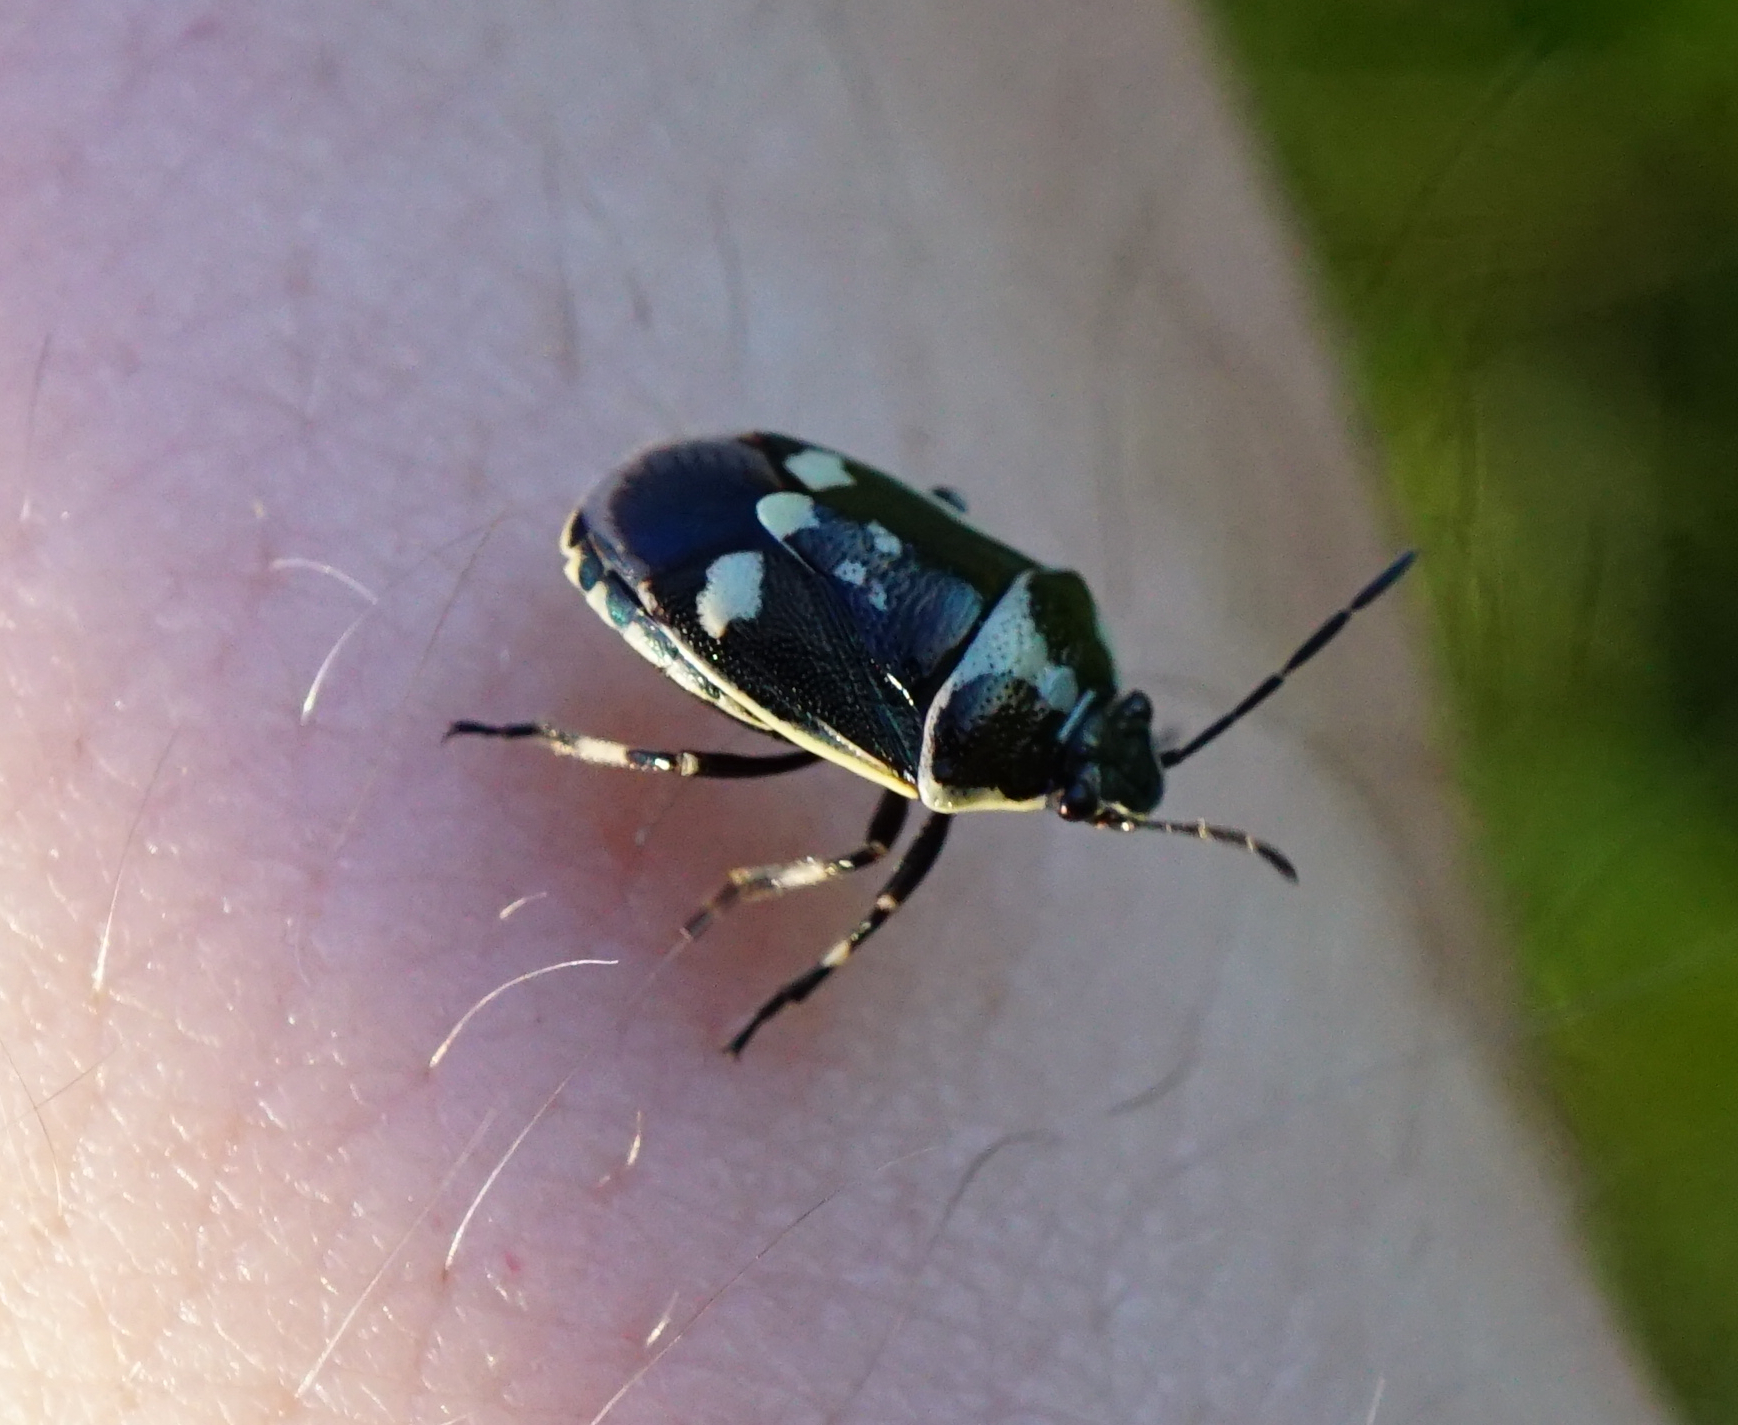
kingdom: Animalia
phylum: Arthropoda
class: Insecta
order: Hemiptera
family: Pentatomidae
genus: Eurydema
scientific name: Eurydema oleracea
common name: Cabbage bug
